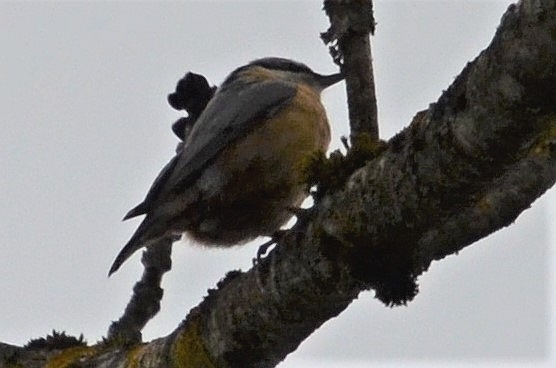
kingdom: Animalia
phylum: Chordata
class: Aves
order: Passeriformes
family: Sittidae
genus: Sitta
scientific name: Sitta europaea
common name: Eurasian nuthatch
